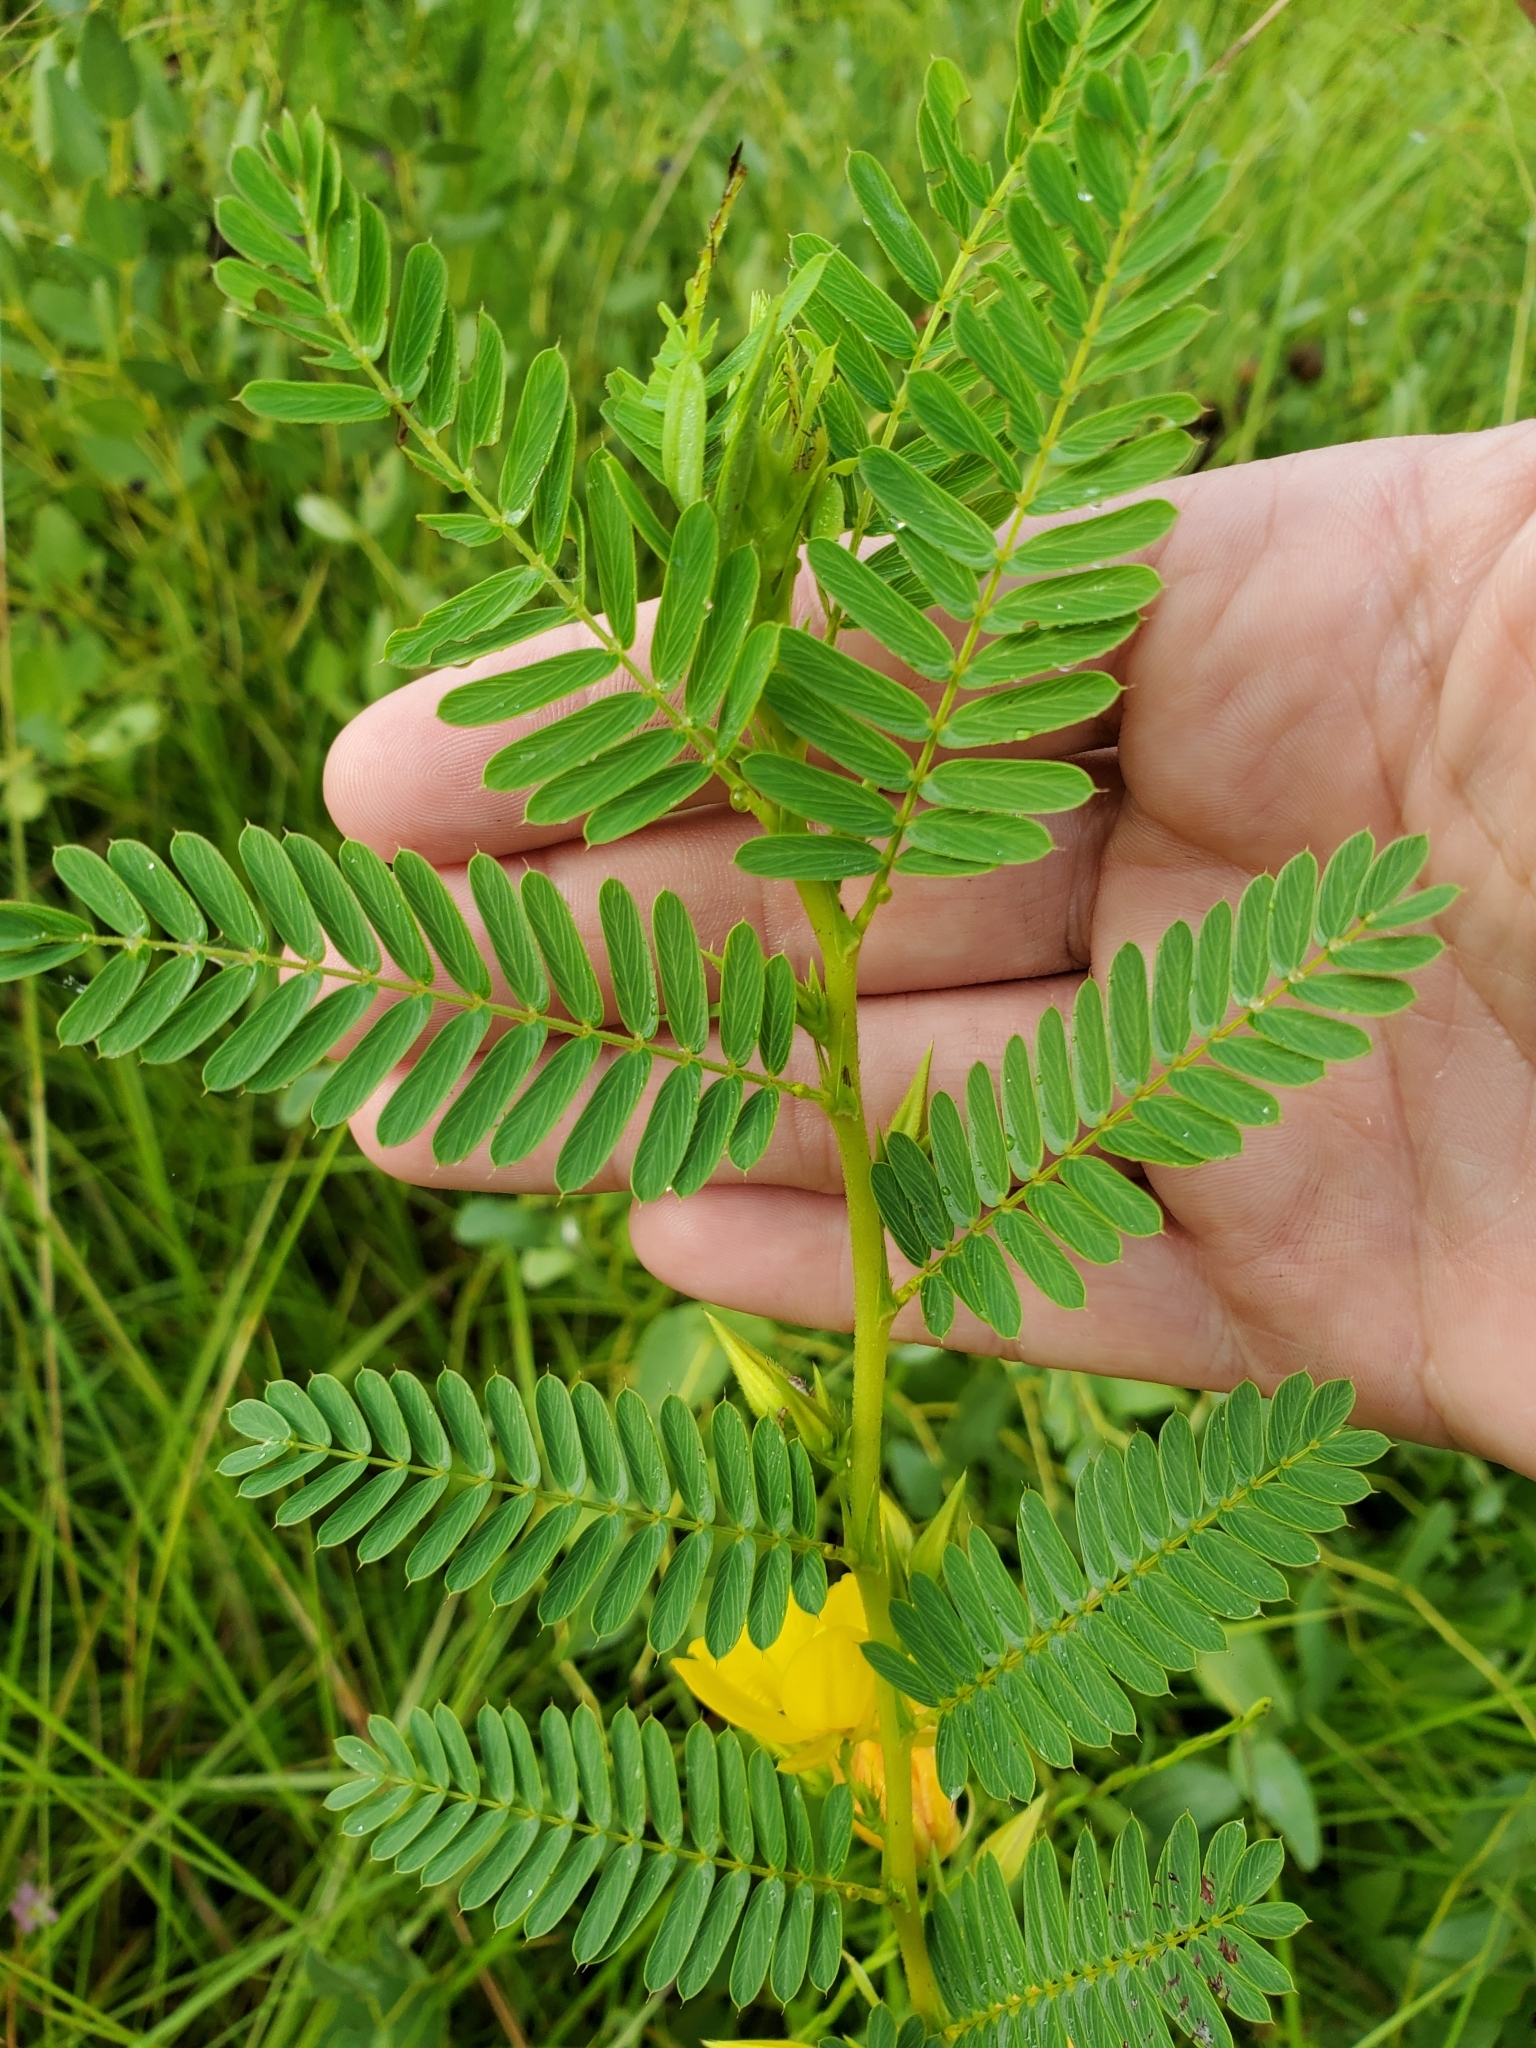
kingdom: Plantae
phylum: Tracheophyta
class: Magnoliopsida
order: Fabales
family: Fabaceae
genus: Chamaecrista
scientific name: Chamaecrista fasciculata
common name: Golden cassia
